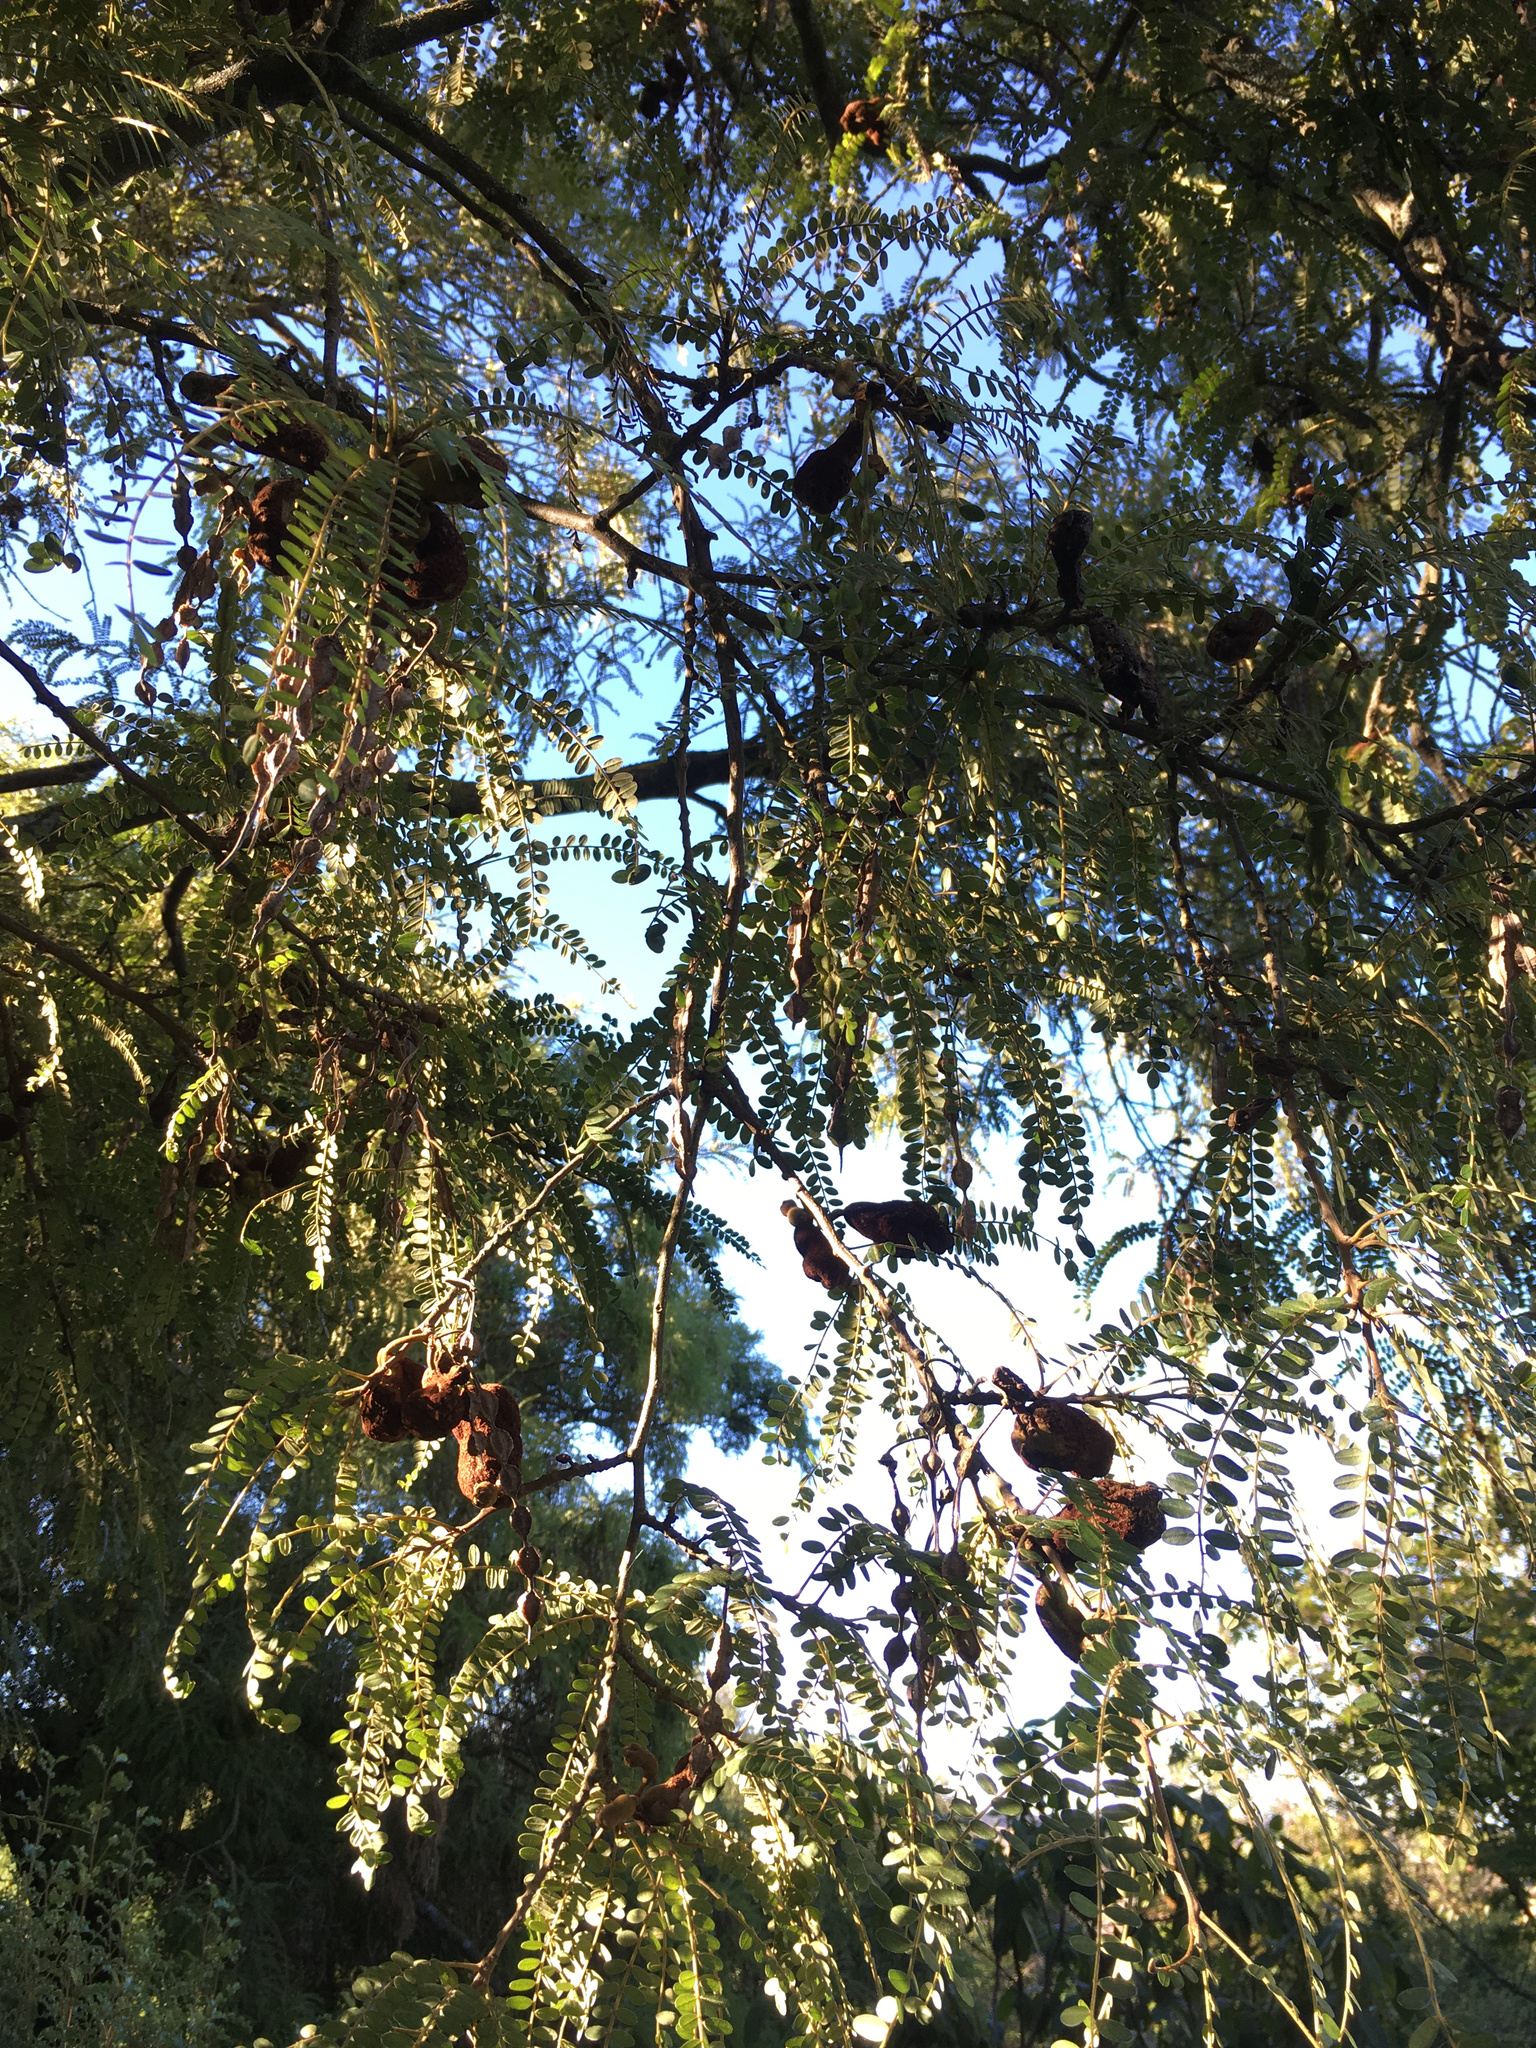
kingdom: Fungi
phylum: Basidiomycota
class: Pucciniomycetes
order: Pucciniales
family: Pucciniaceae
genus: Uromyces
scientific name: Uromyces edwardsiae
